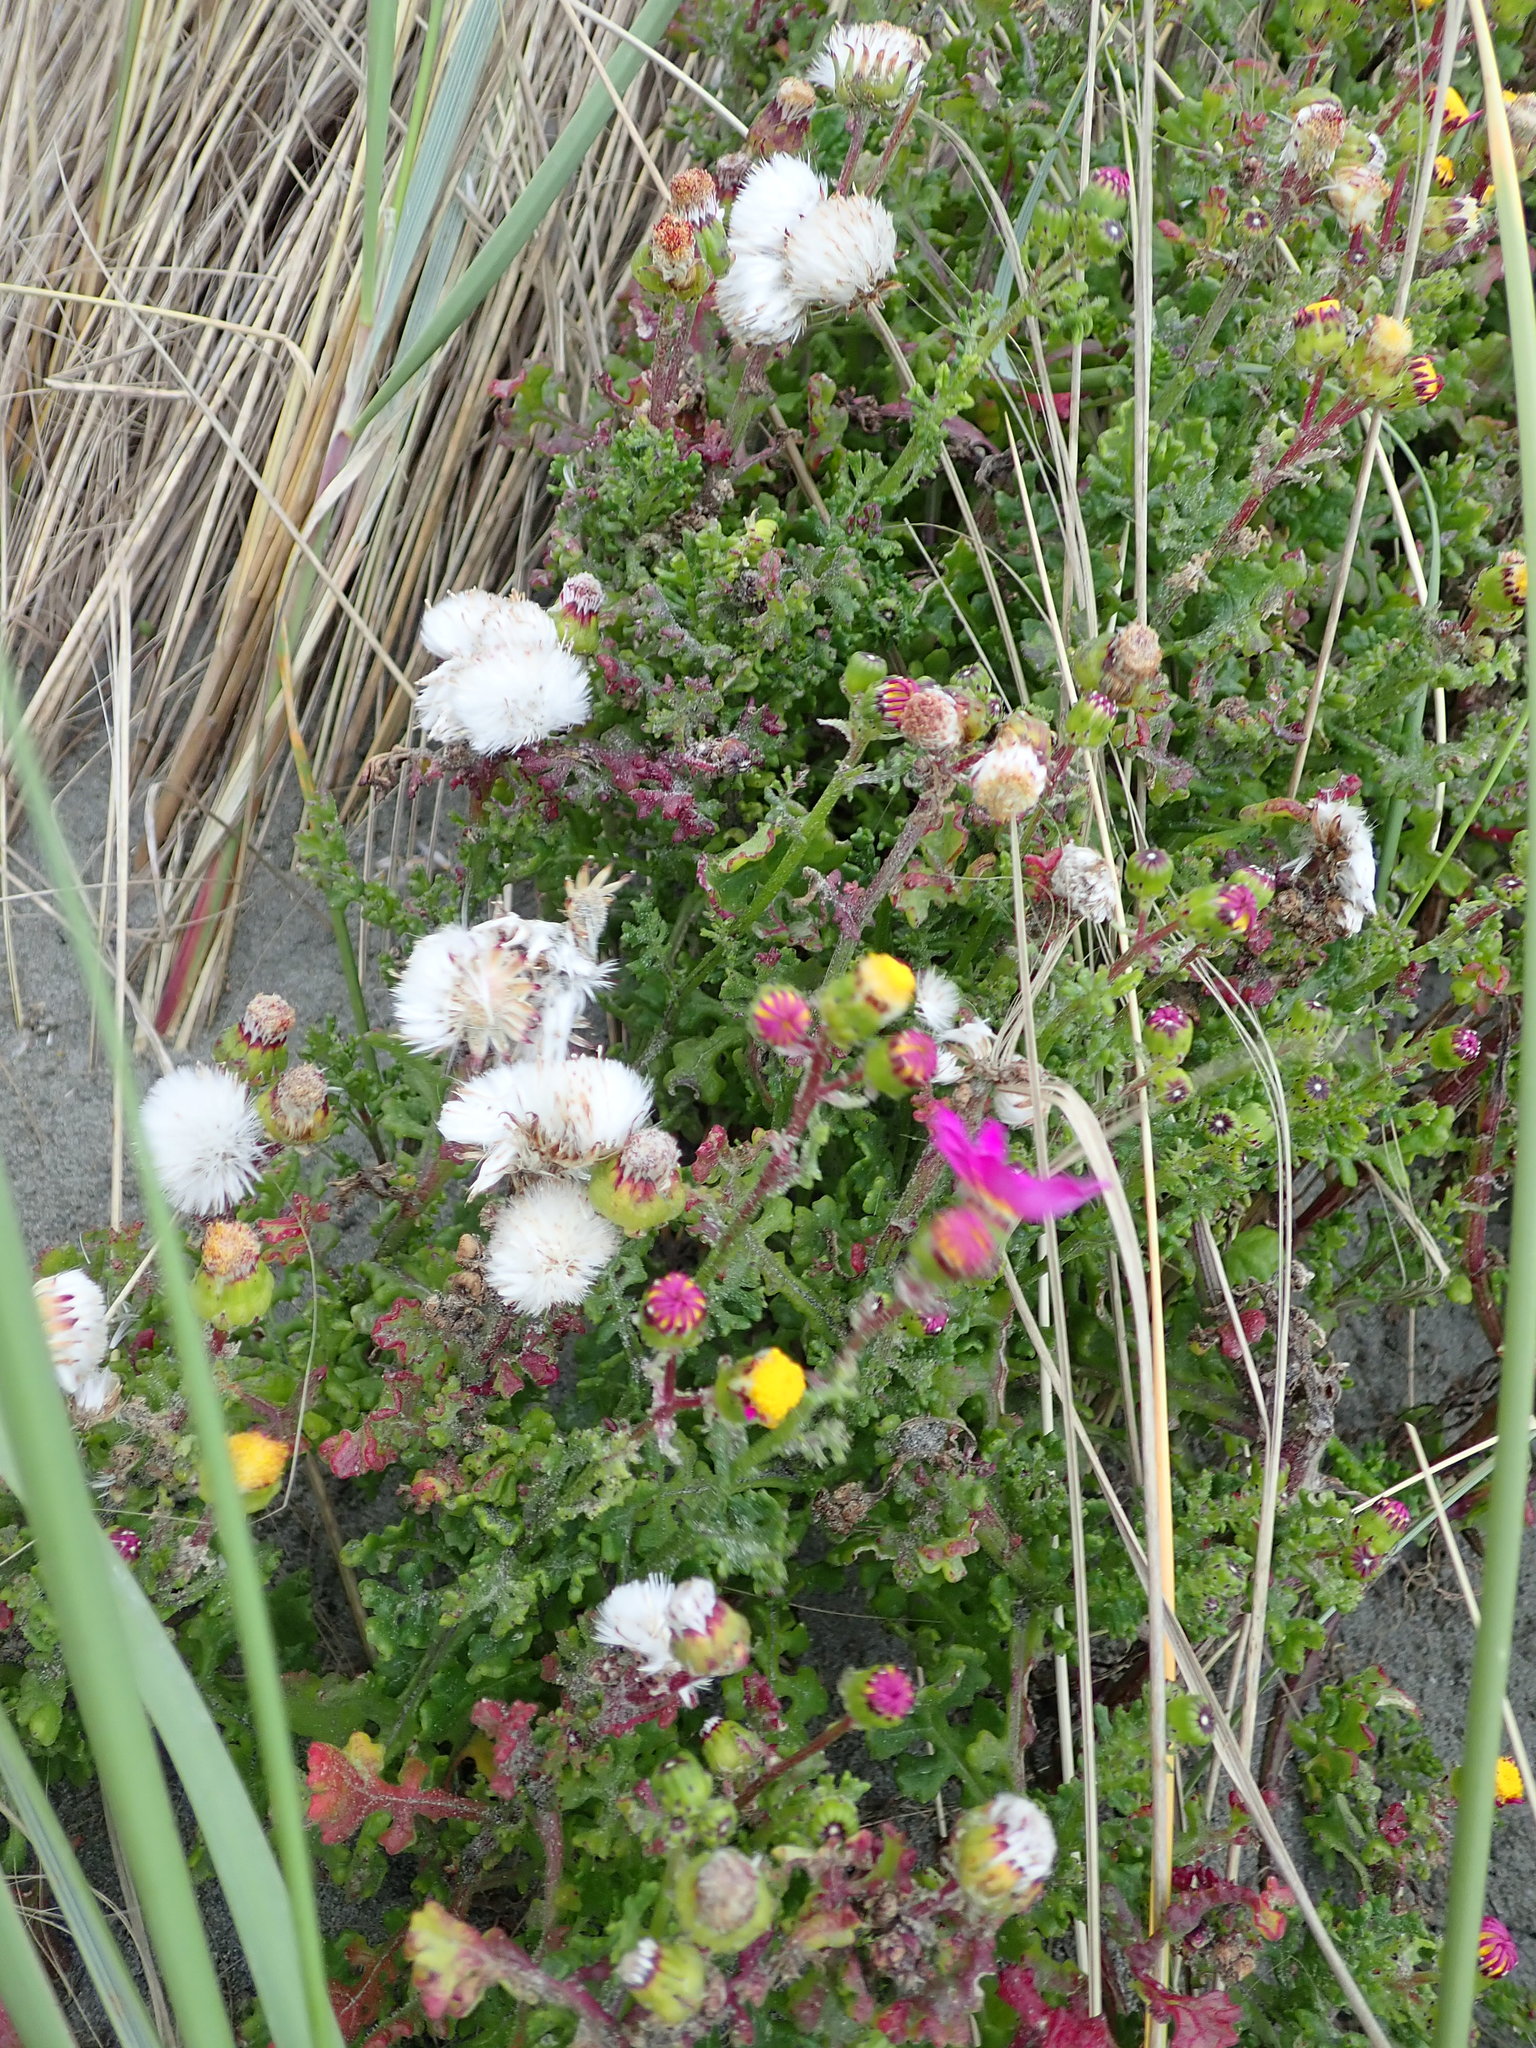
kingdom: Plantae
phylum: Tracheophyta
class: Magnoliopsida
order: Asterales
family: Asteraceae
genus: Senecio
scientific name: Senecio elegans
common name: Purple groundsel
